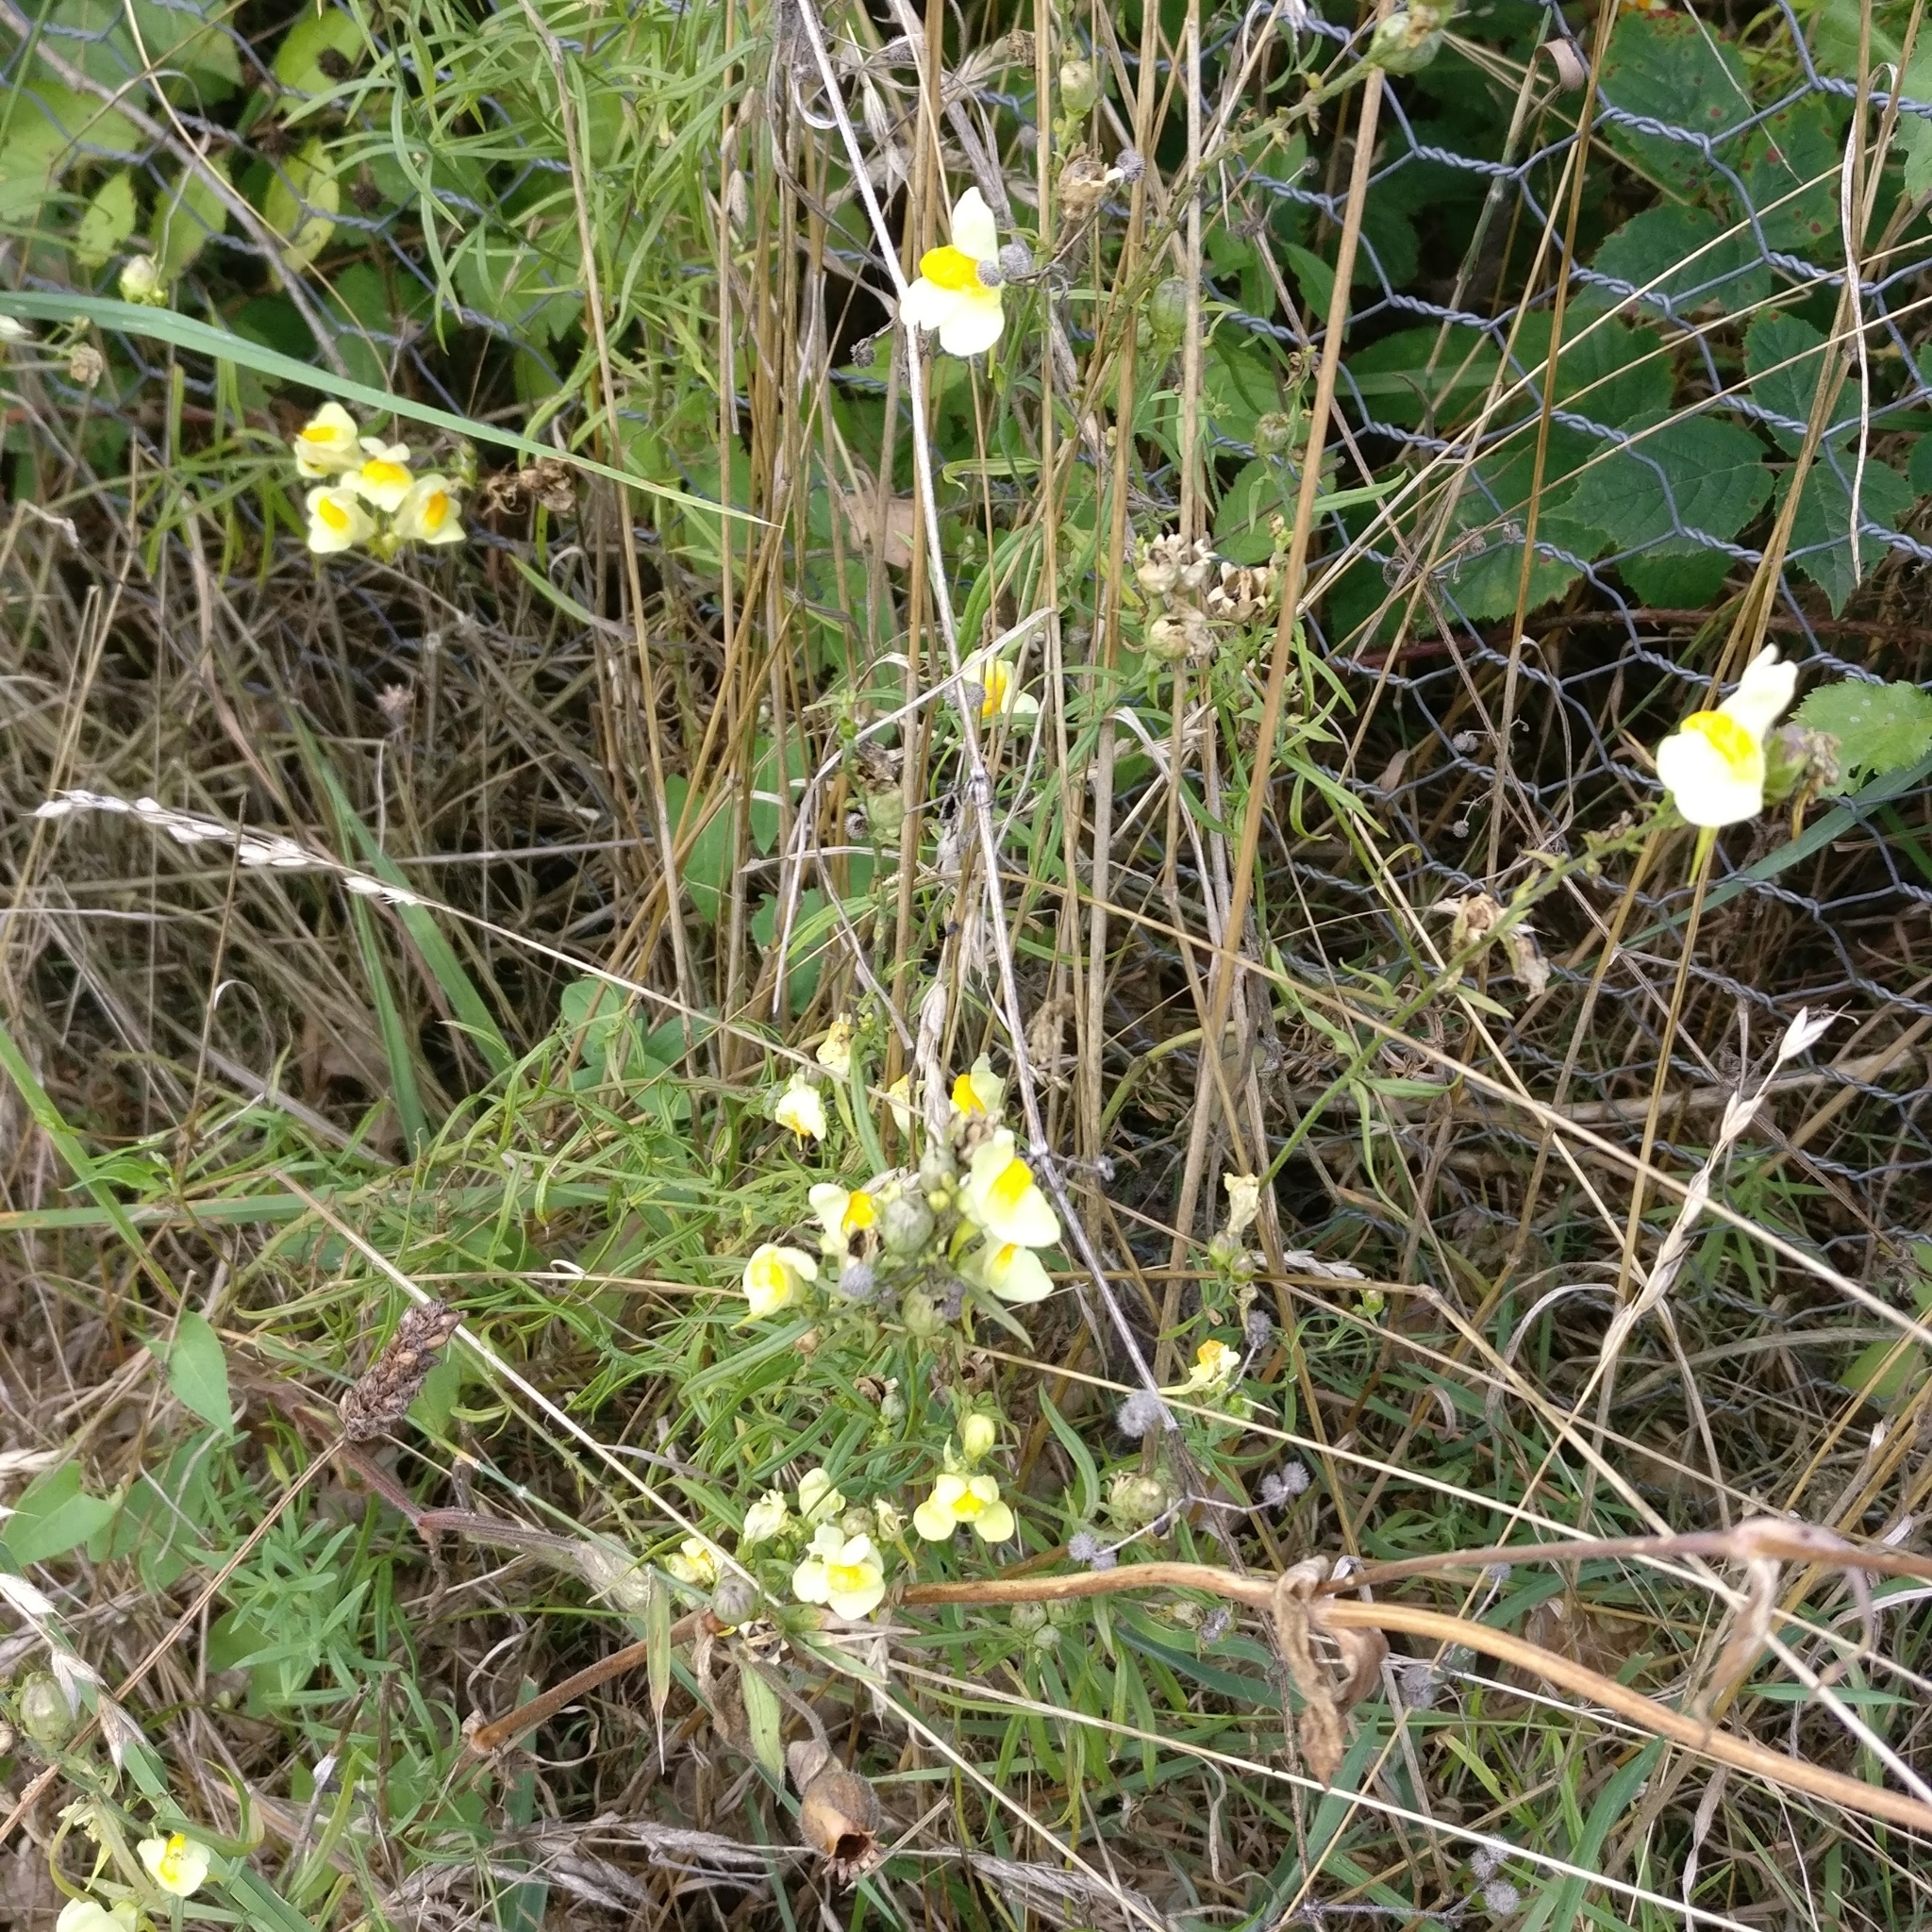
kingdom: Plantae
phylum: Tracheophyta
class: Magnoliopsida
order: Lamiales
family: Plantaginaceae
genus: Linaria
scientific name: Linaria vulgaris
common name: Butter and eggs
